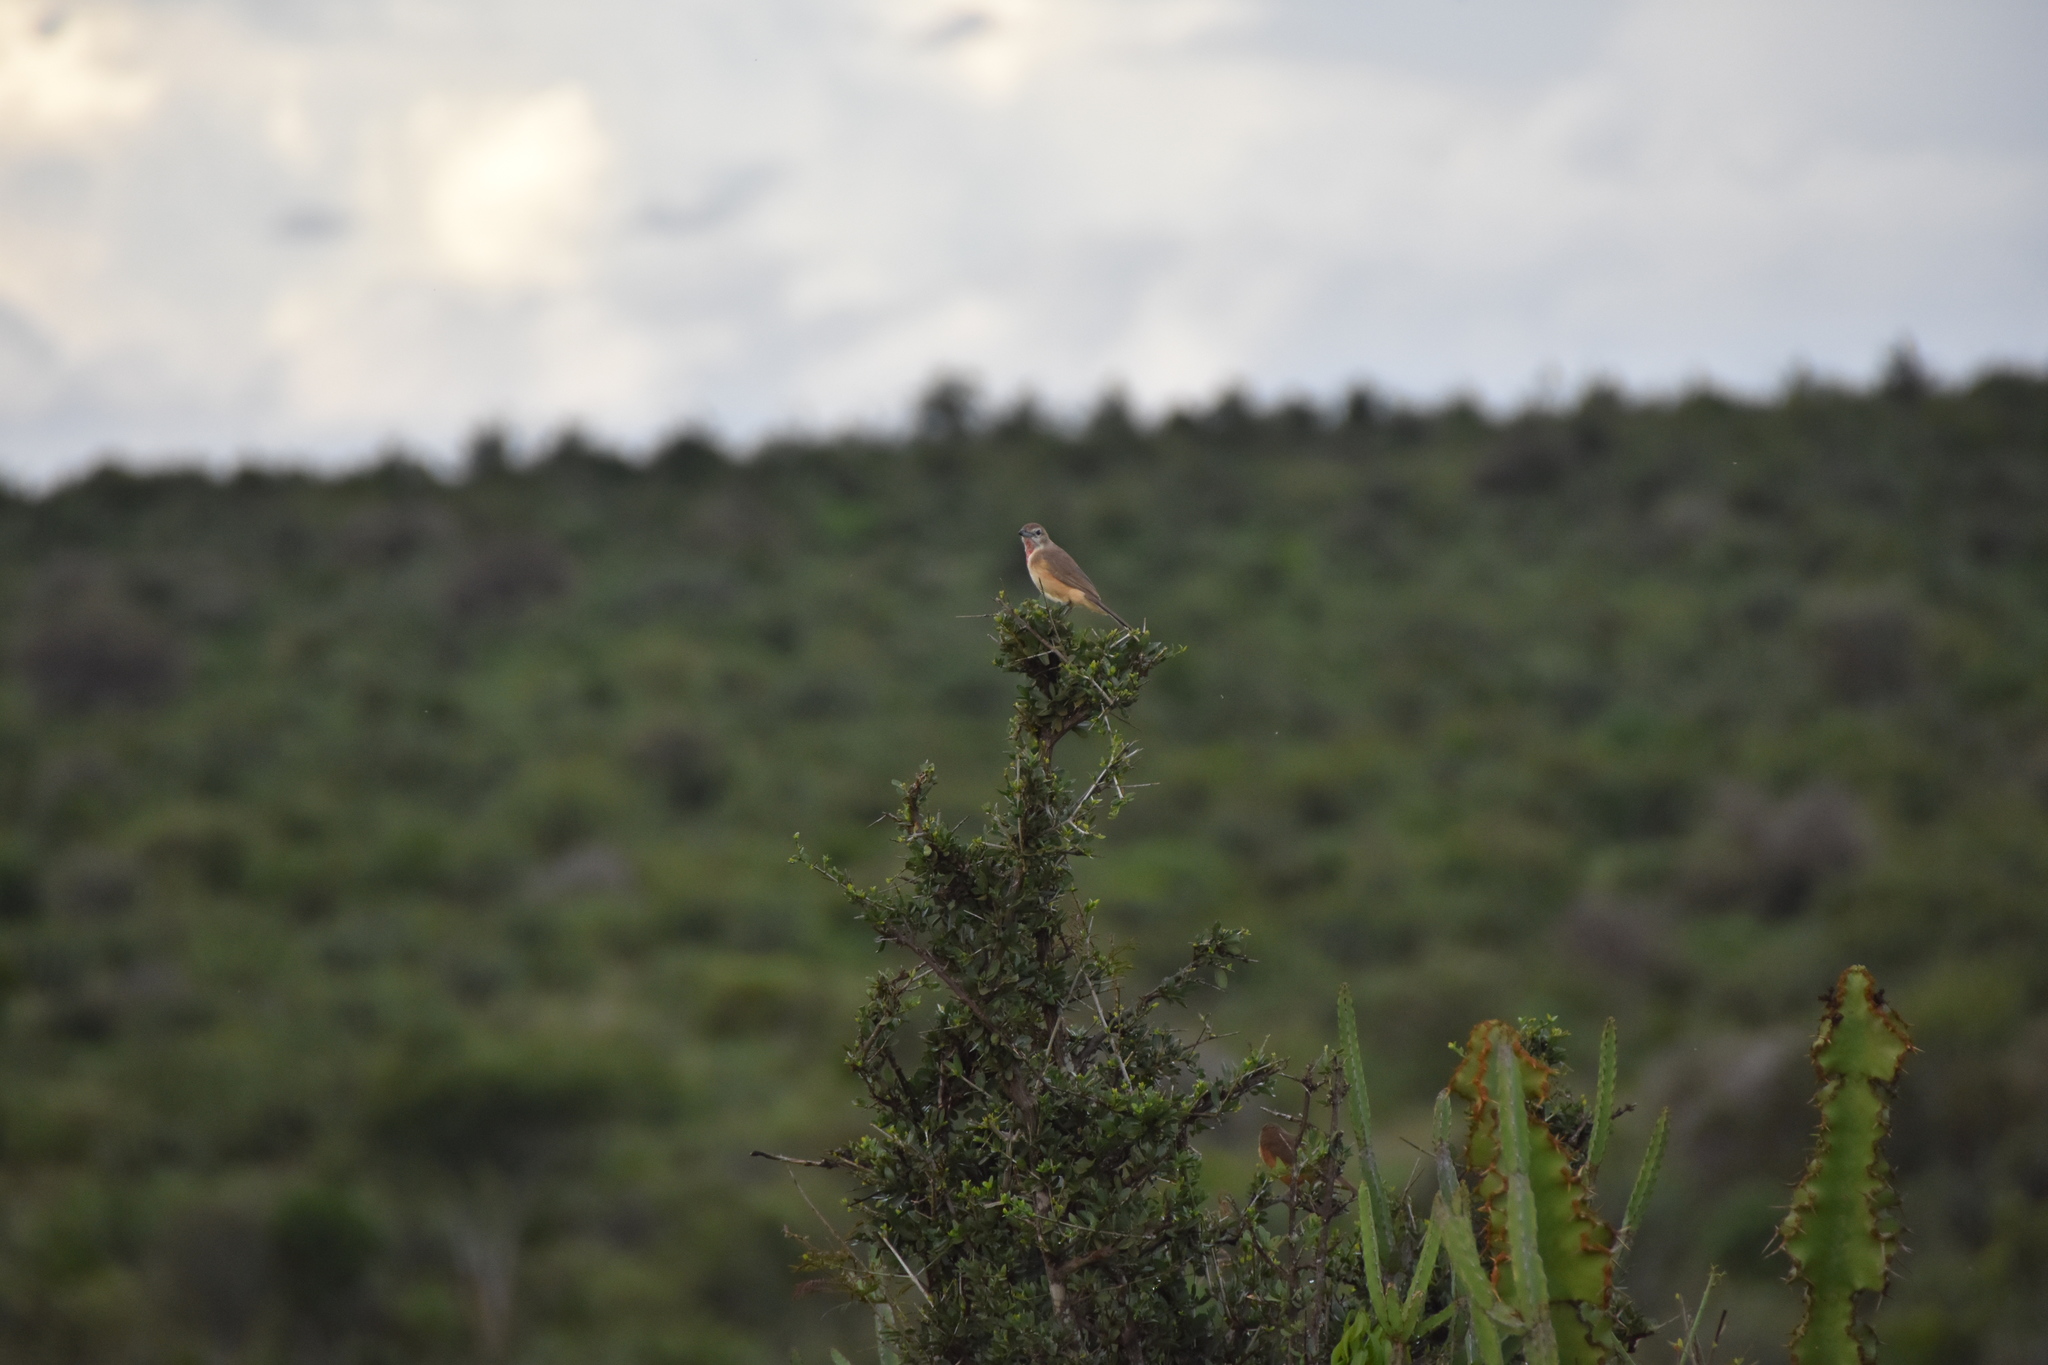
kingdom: Animalia
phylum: Chordata
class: Aves
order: Passeriformes
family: Malaconotidae
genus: Telophorus
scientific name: Telophorus cruentus
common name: Rosy-patched bushshrike
